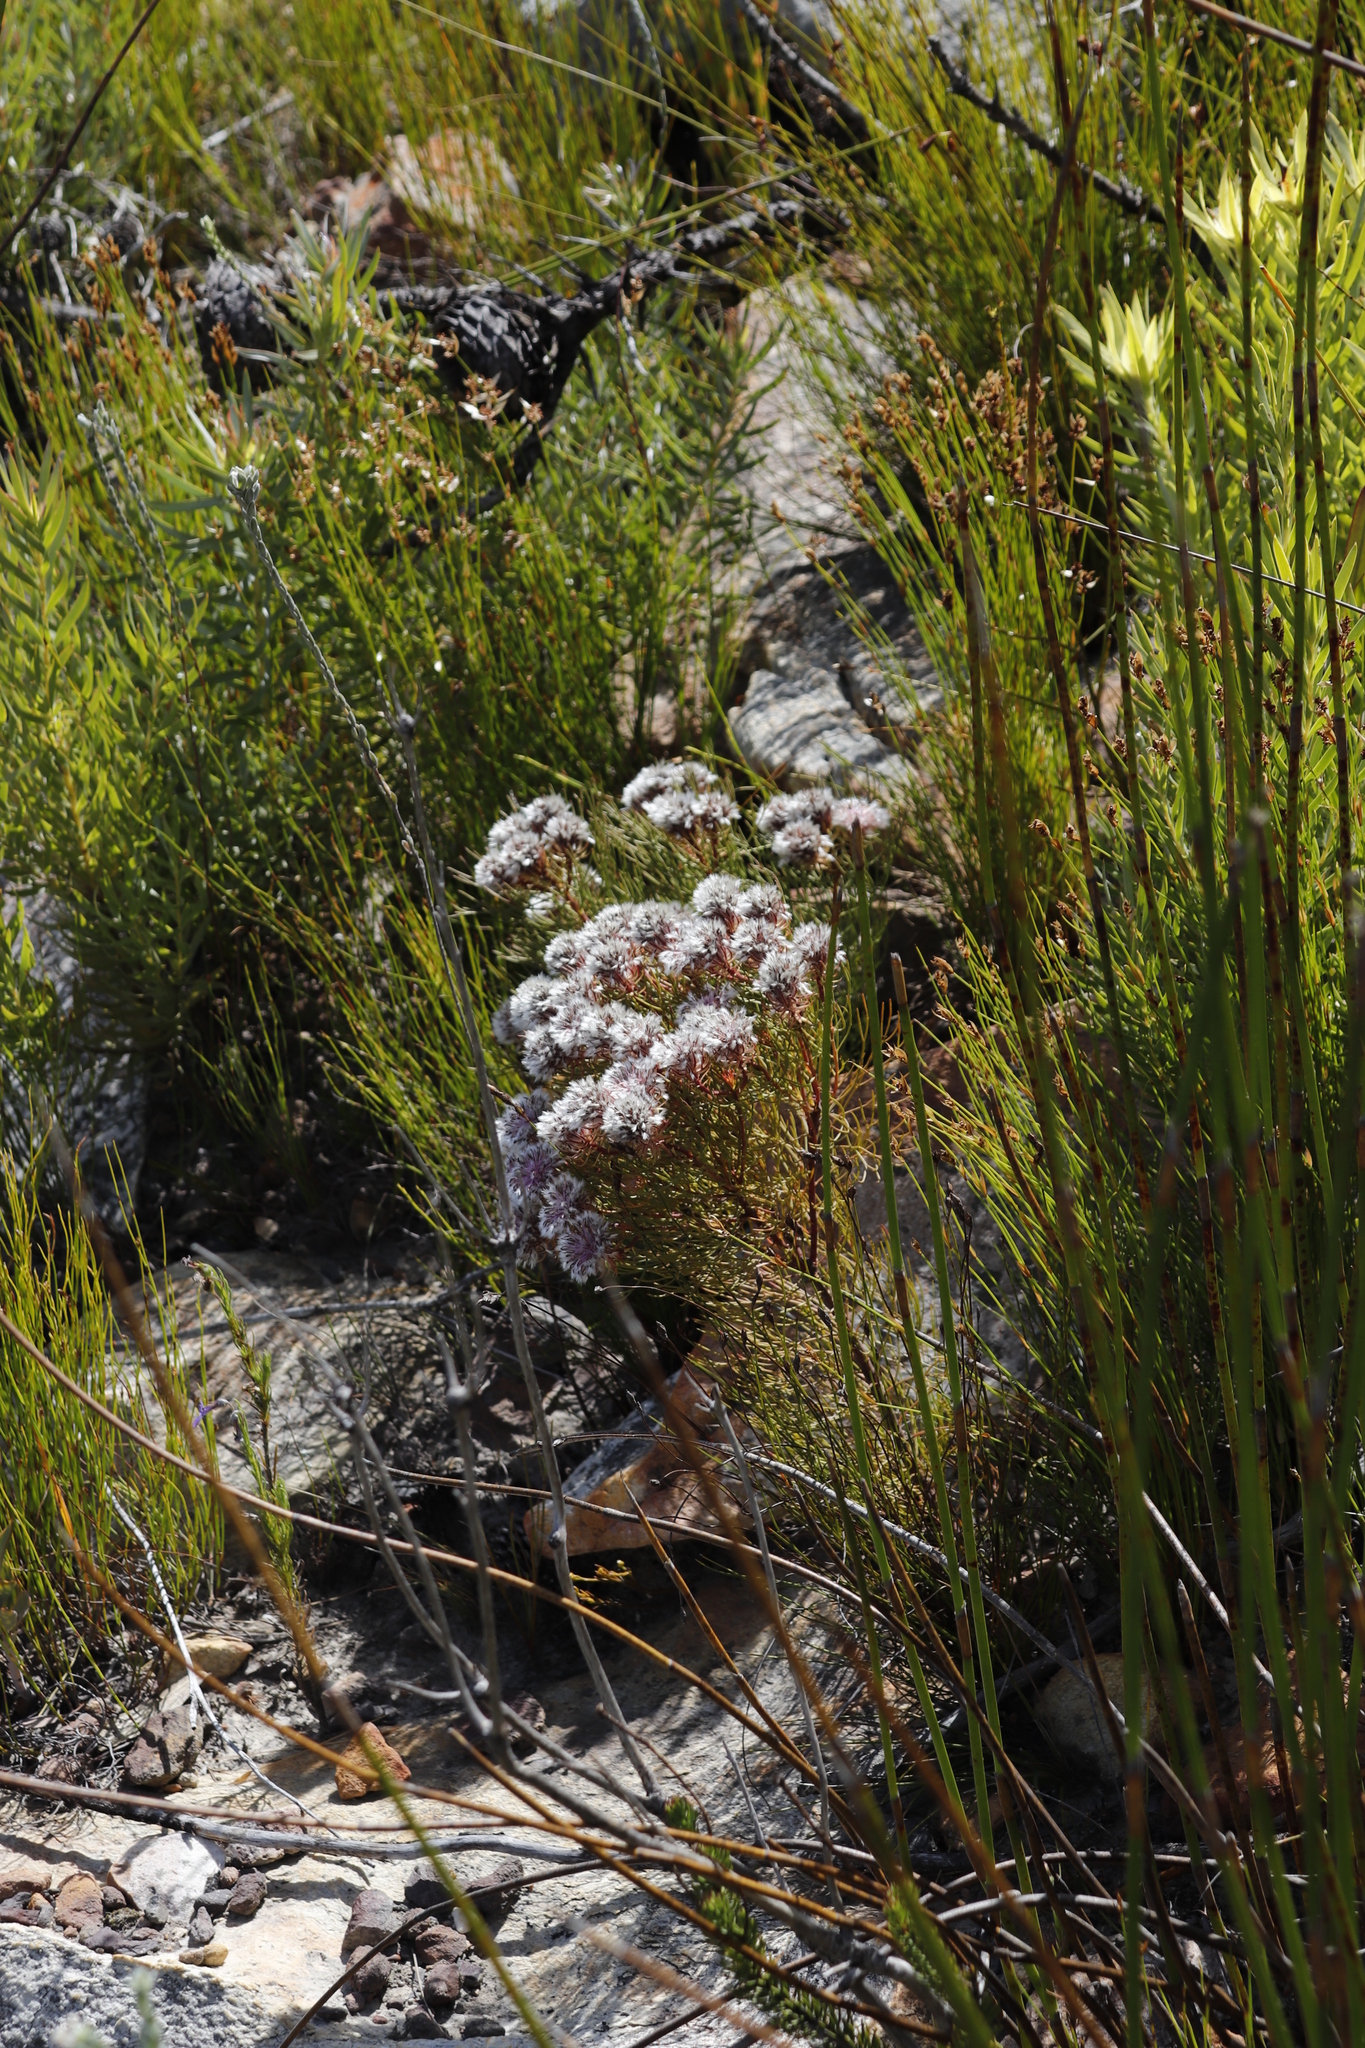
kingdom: Plantae
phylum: Tracheophyta
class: Magnoliopsida
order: Proteales
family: Proteaceae
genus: Serruria
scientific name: Serruria phylicoides
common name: Bearded spiderhead
